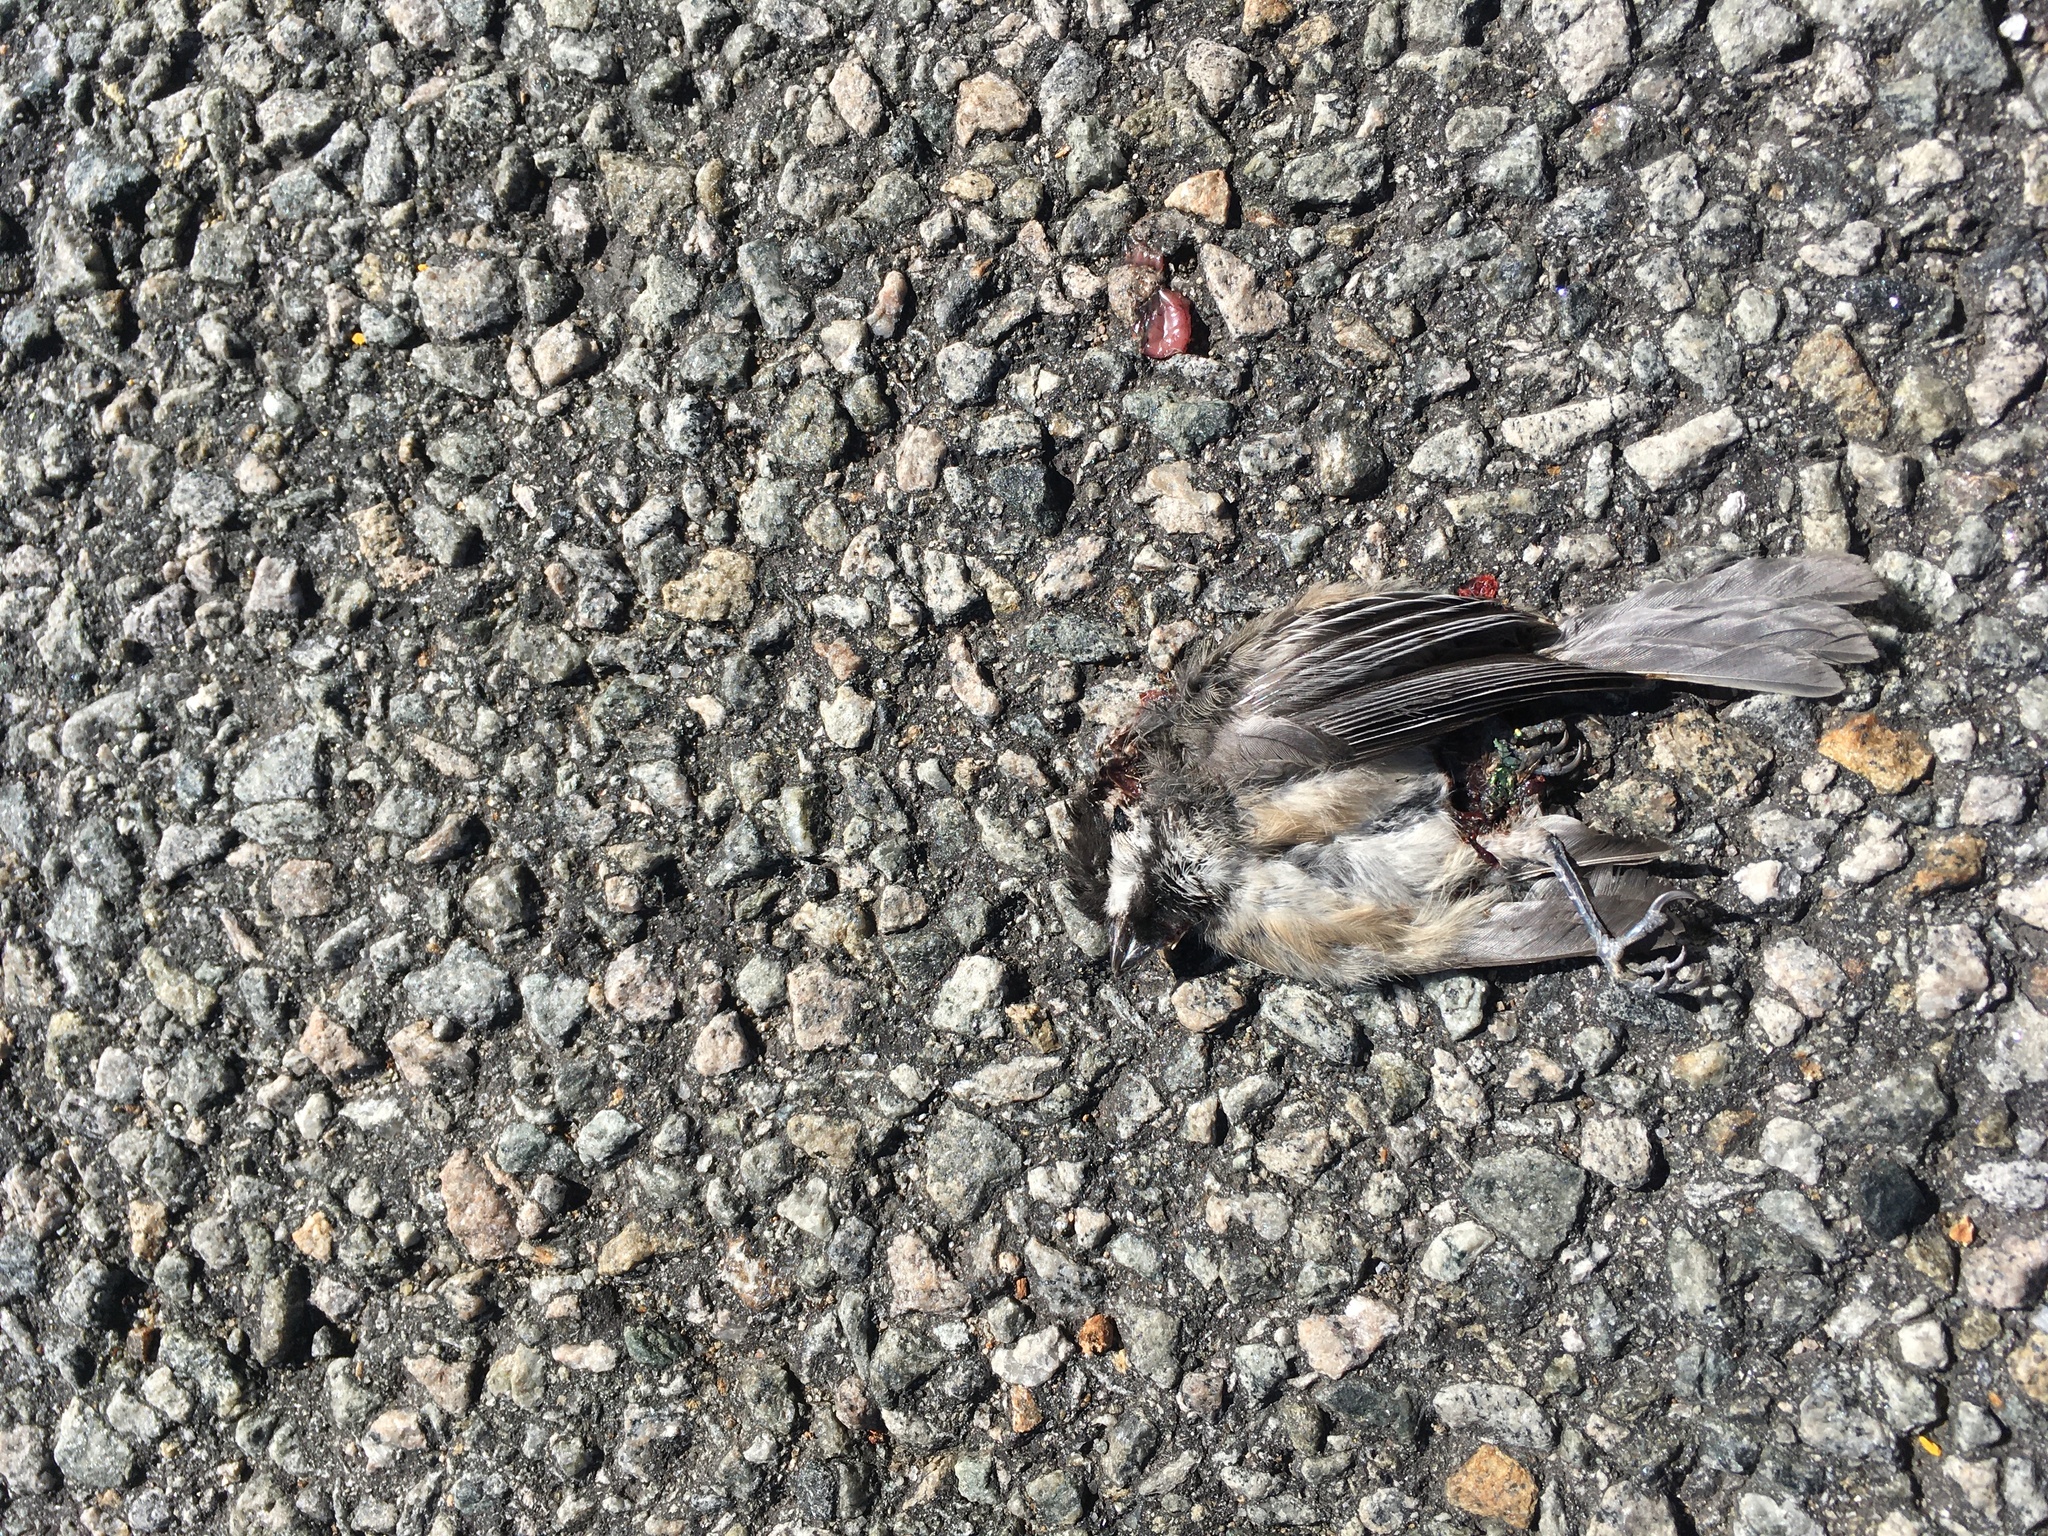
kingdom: Animalia
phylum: Chordata
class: Aves
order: Passeriformes
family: Paridae
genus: Poecile
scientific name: Poecile atricapillus
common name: Black-capped chickadee
